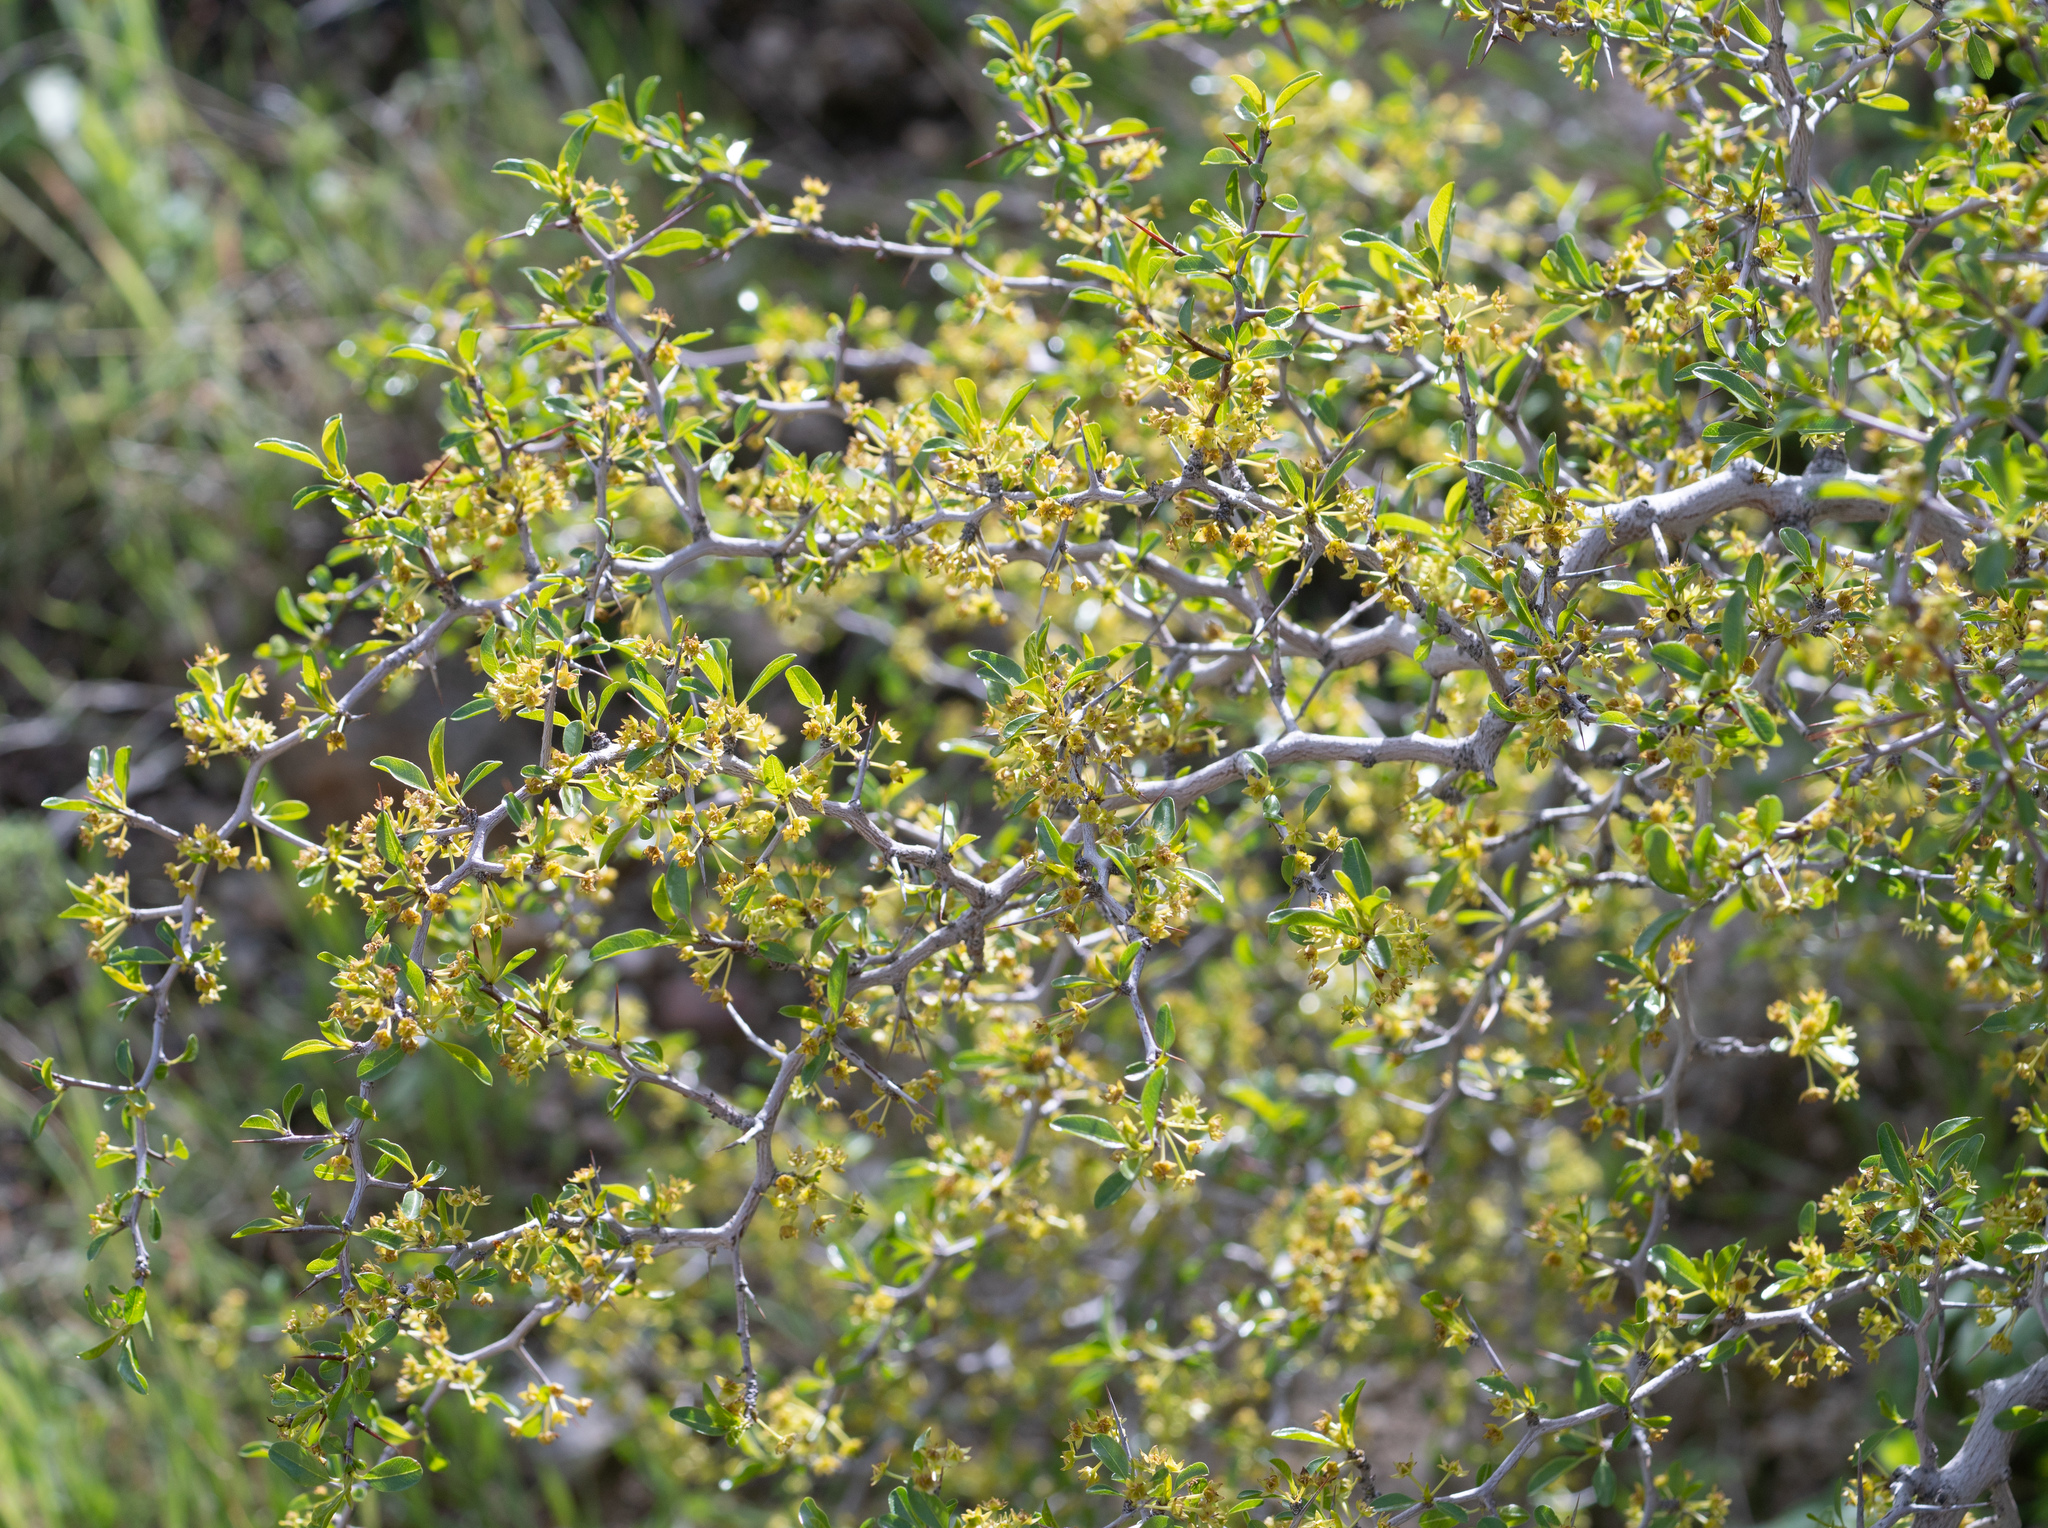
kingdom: Plantae
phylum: Tracheophyta
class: Magnoliopsida
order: Rosales
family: Rhamnaceae
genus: Pseudoziziphus
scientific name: Pseudoziziphus parryi
